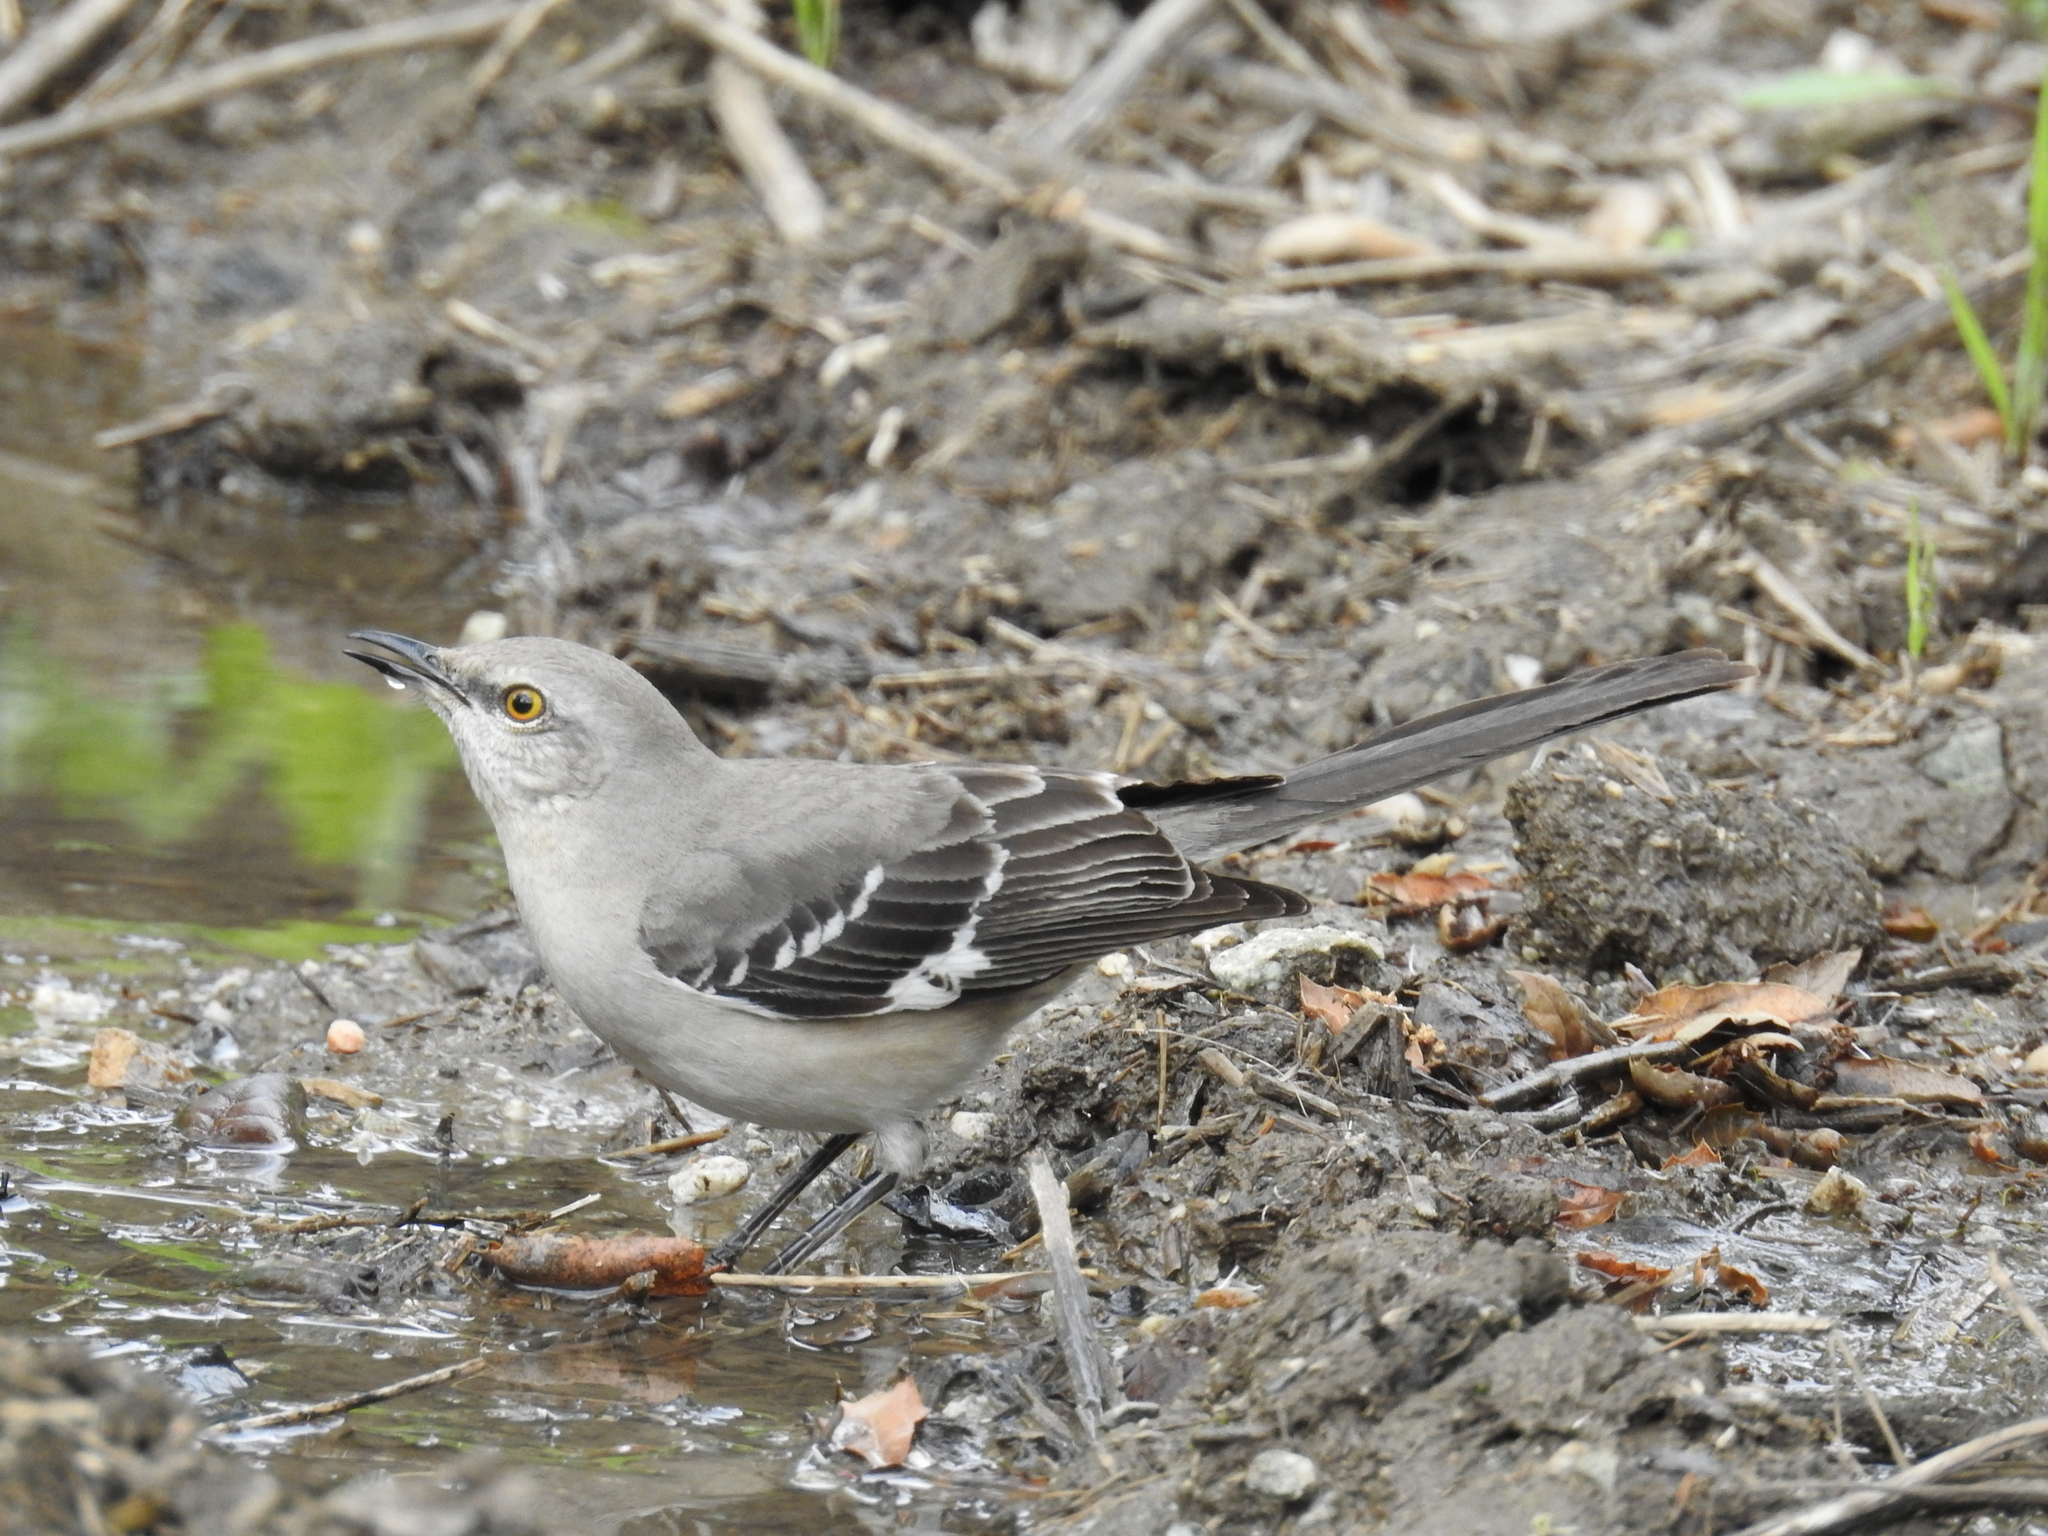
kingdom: Animalia
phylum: Chordata
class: Aves
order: Passeriformes
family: Mimidae
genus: Mimus
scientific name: Mimus polyglottos
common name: Northern mockingbird
